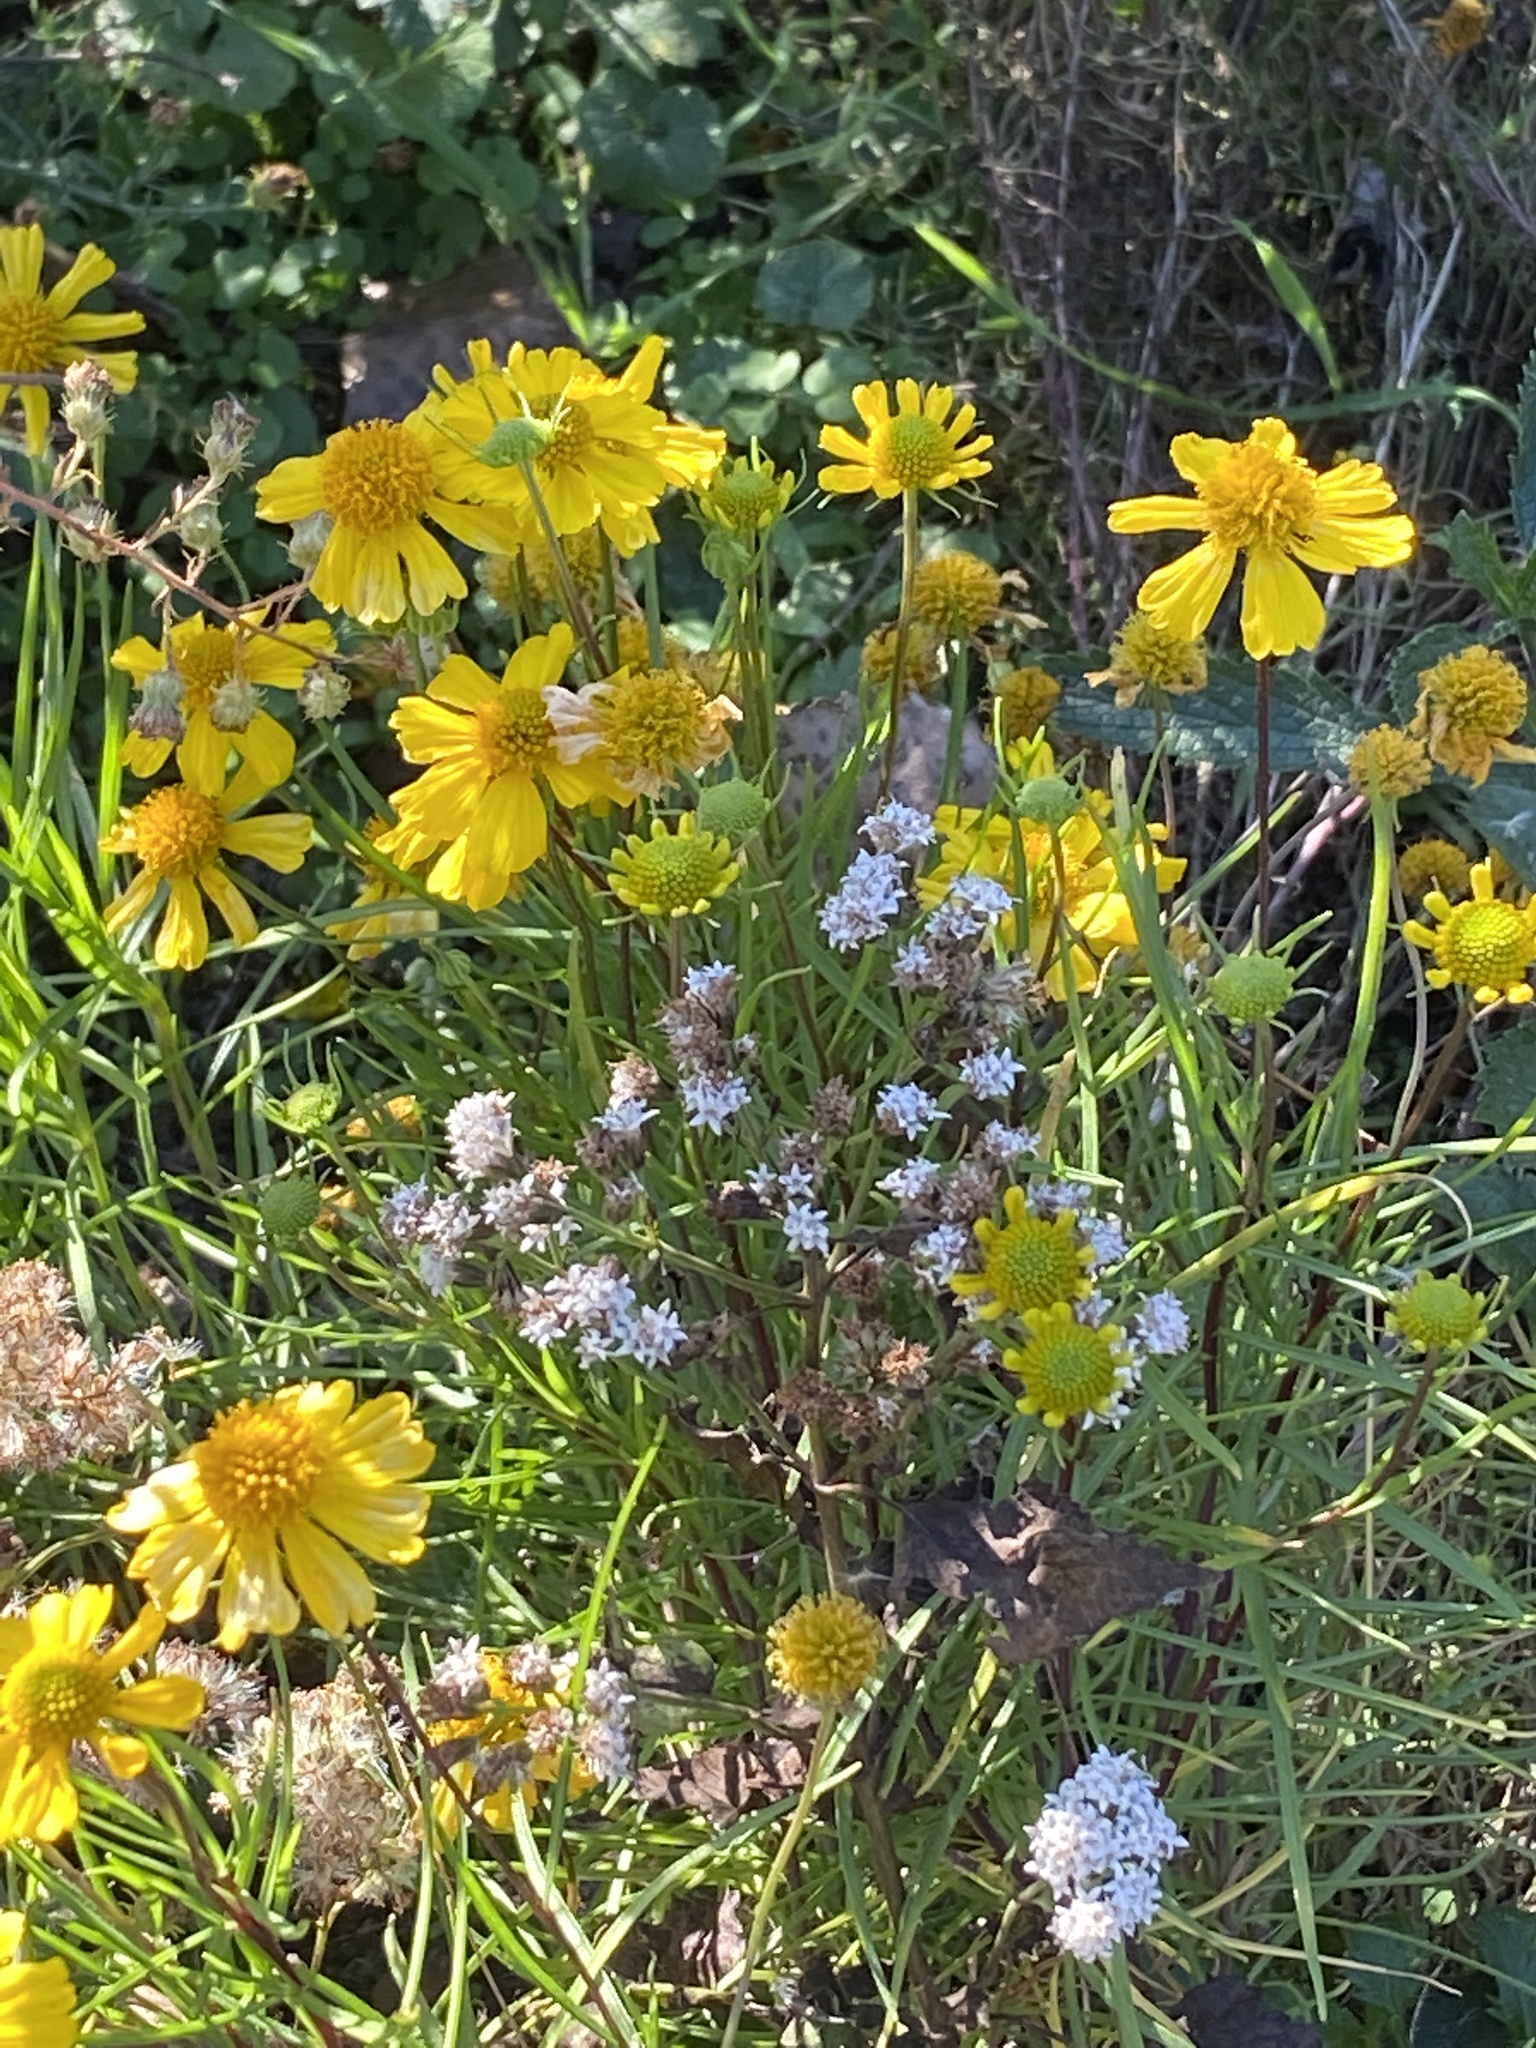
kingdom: Plantae
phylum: Tracheophyta
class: Magnoliopsida
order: Asterales
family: Asteraceae
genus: Helenium
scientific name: Helenium autumnale
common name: Sneezeweed
